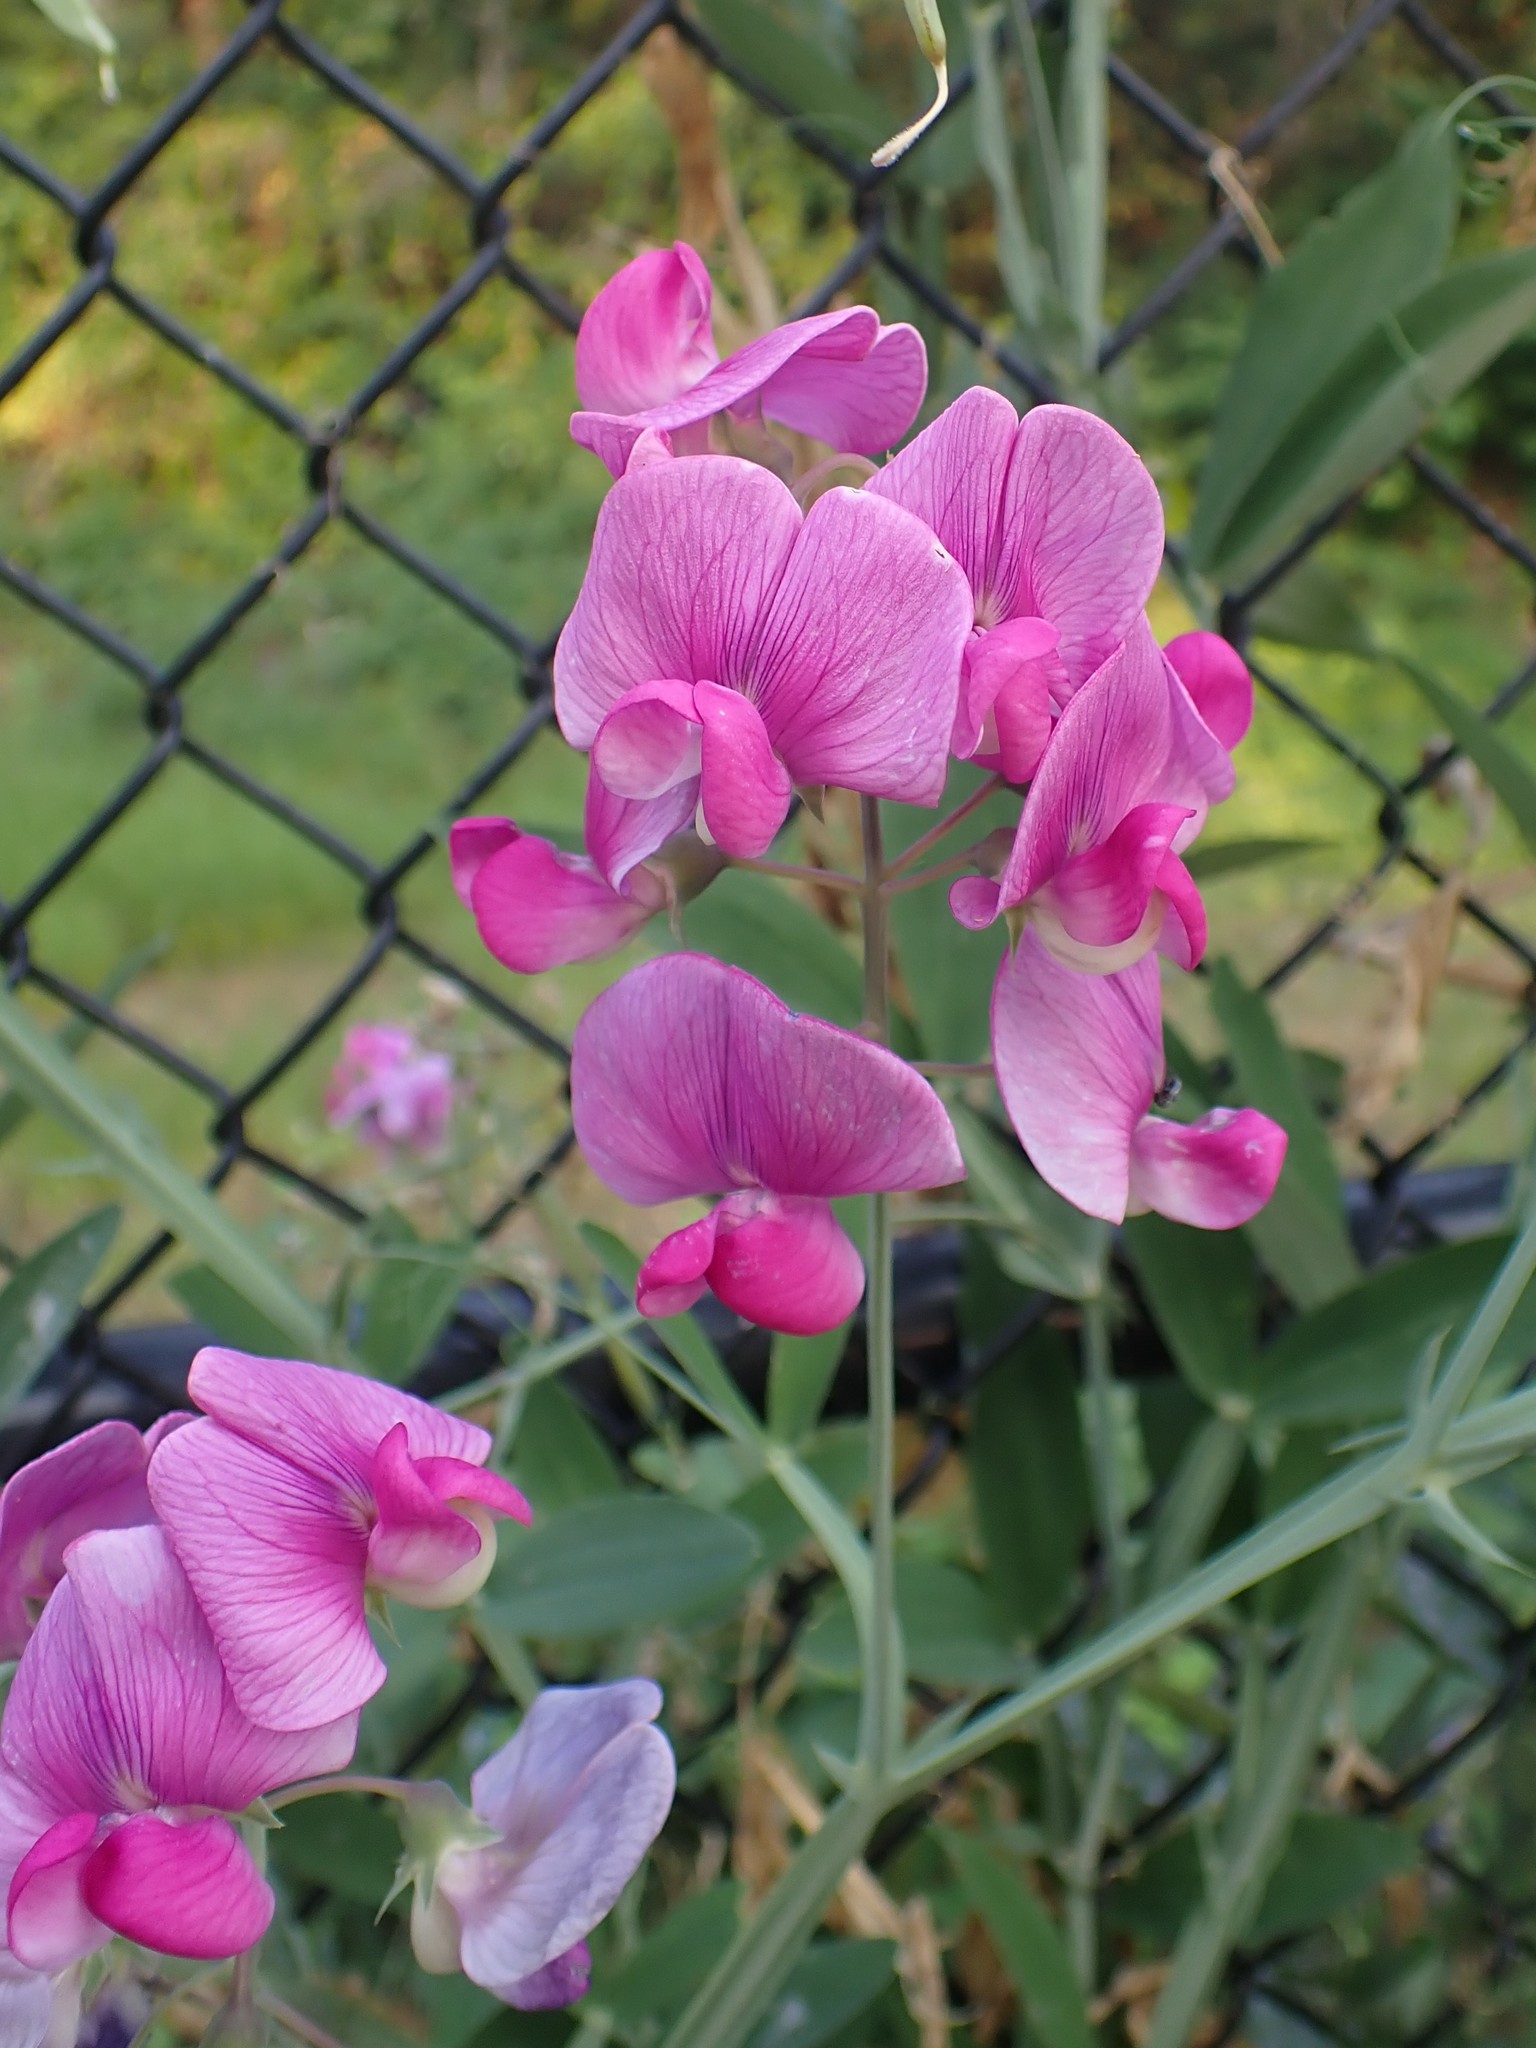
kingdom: Plantae
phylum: Tracheophyta
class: Magnoliopsida
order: Fabales
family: Fabaceae
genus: Lathyrus
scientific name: Lathyrus latifolius
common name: Perennial pea
